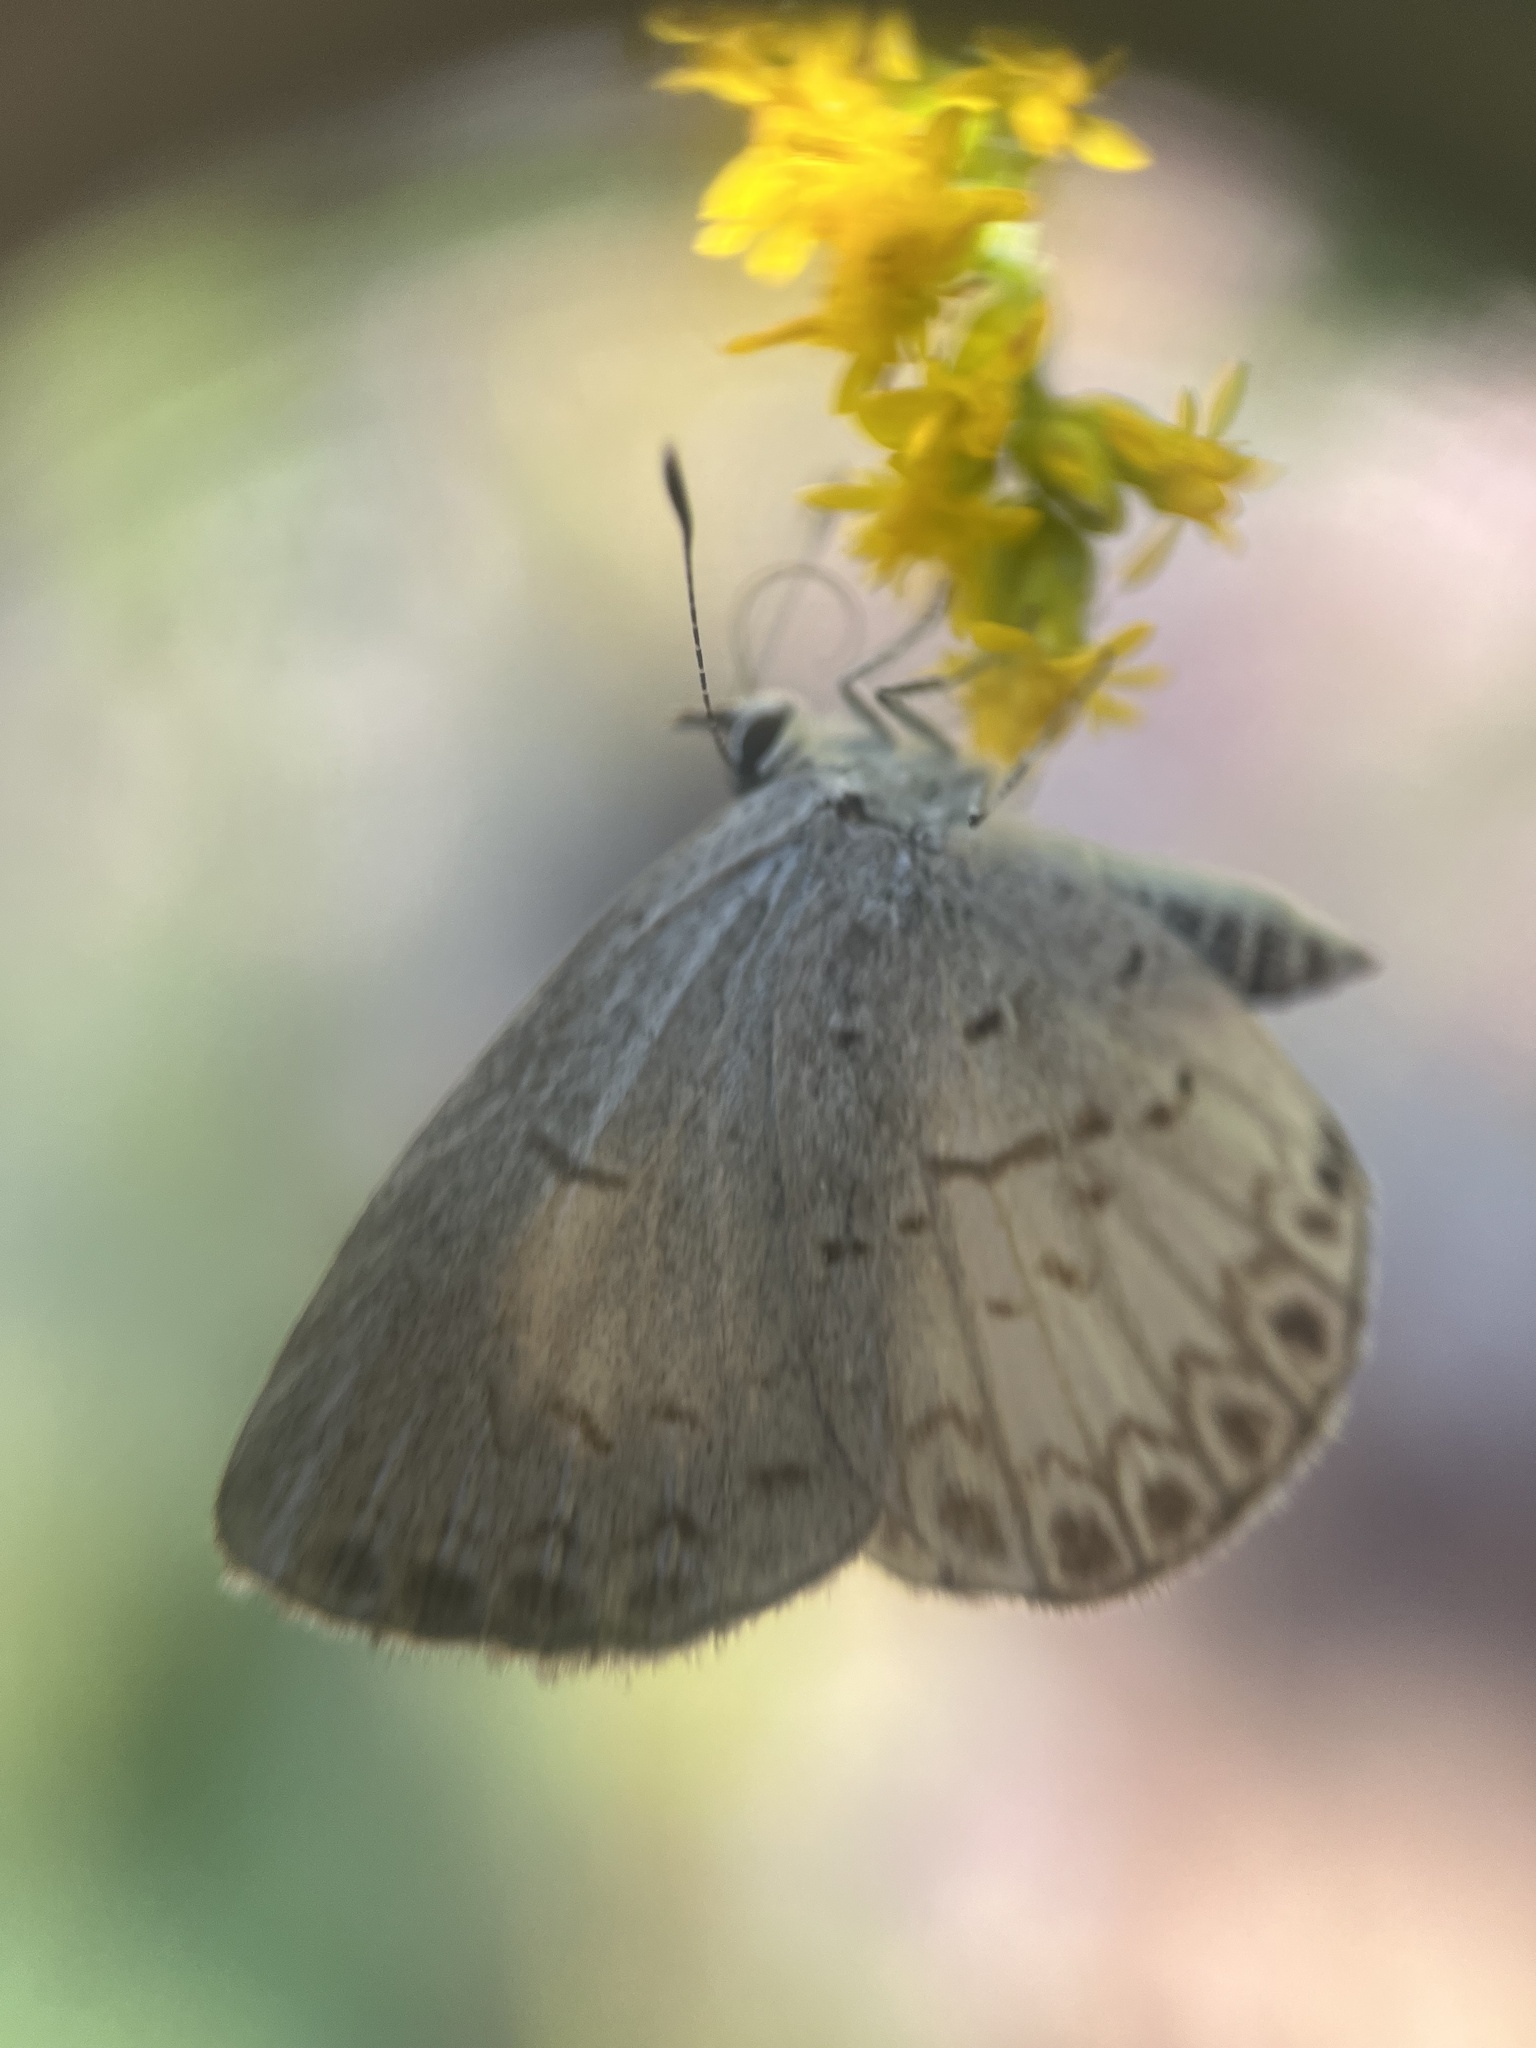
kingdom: Animalia
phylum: Arthropoda
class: Insecta
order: Lepidoptera
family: Lycaenidae
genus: Cyaniris
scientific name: Cyaniris neglecta
